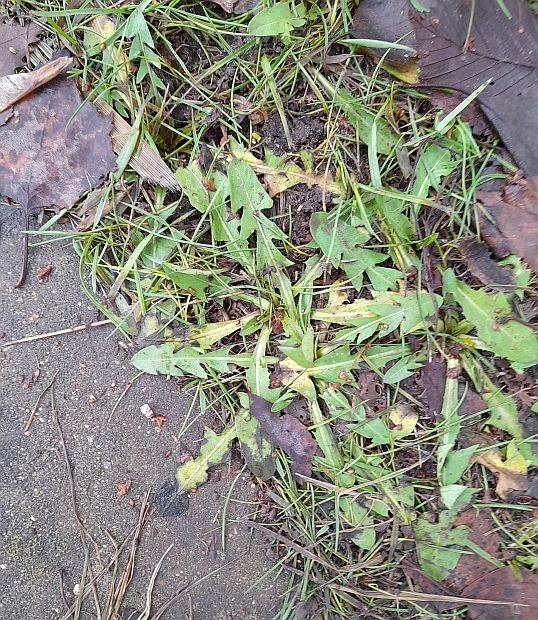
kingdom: Plantae
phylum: Tracheophyta
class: Magnoliopsida
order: Asterales
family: Asteraceae
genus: Taraxacum
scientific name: Taraxacum officinale
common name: Common dandelion
